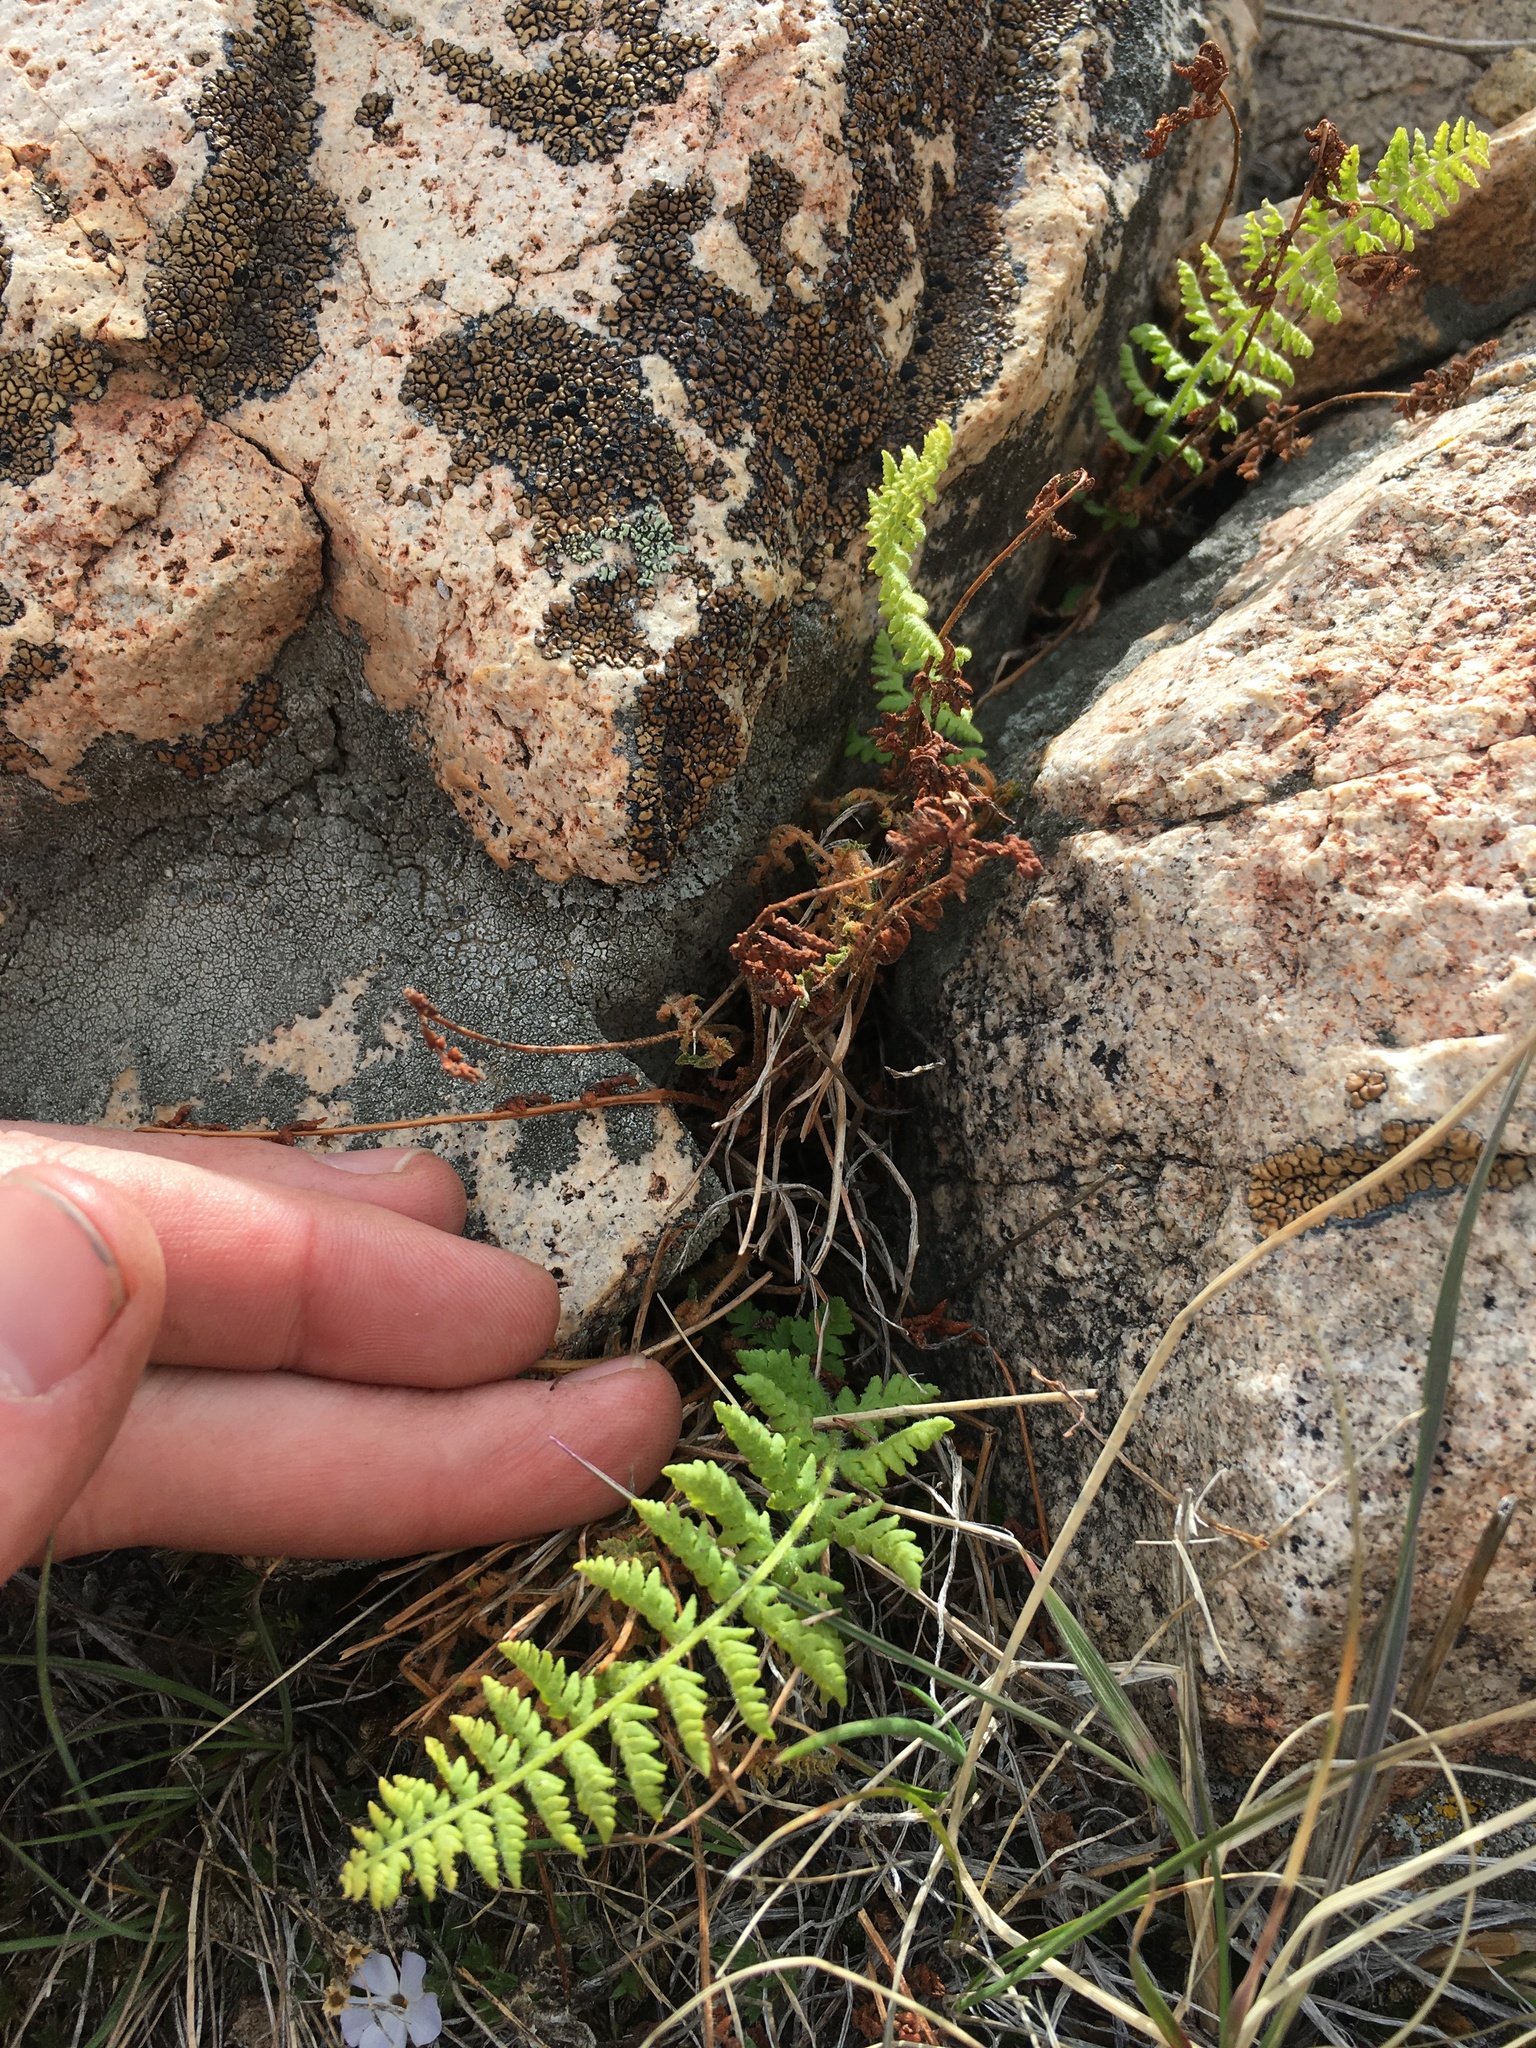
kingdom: Plantae
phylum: Tracheophyta
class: Polypodiopsida
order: Polypodiales
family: Woodsiaceae
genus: Physematium
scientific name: Physematium scopulinum
